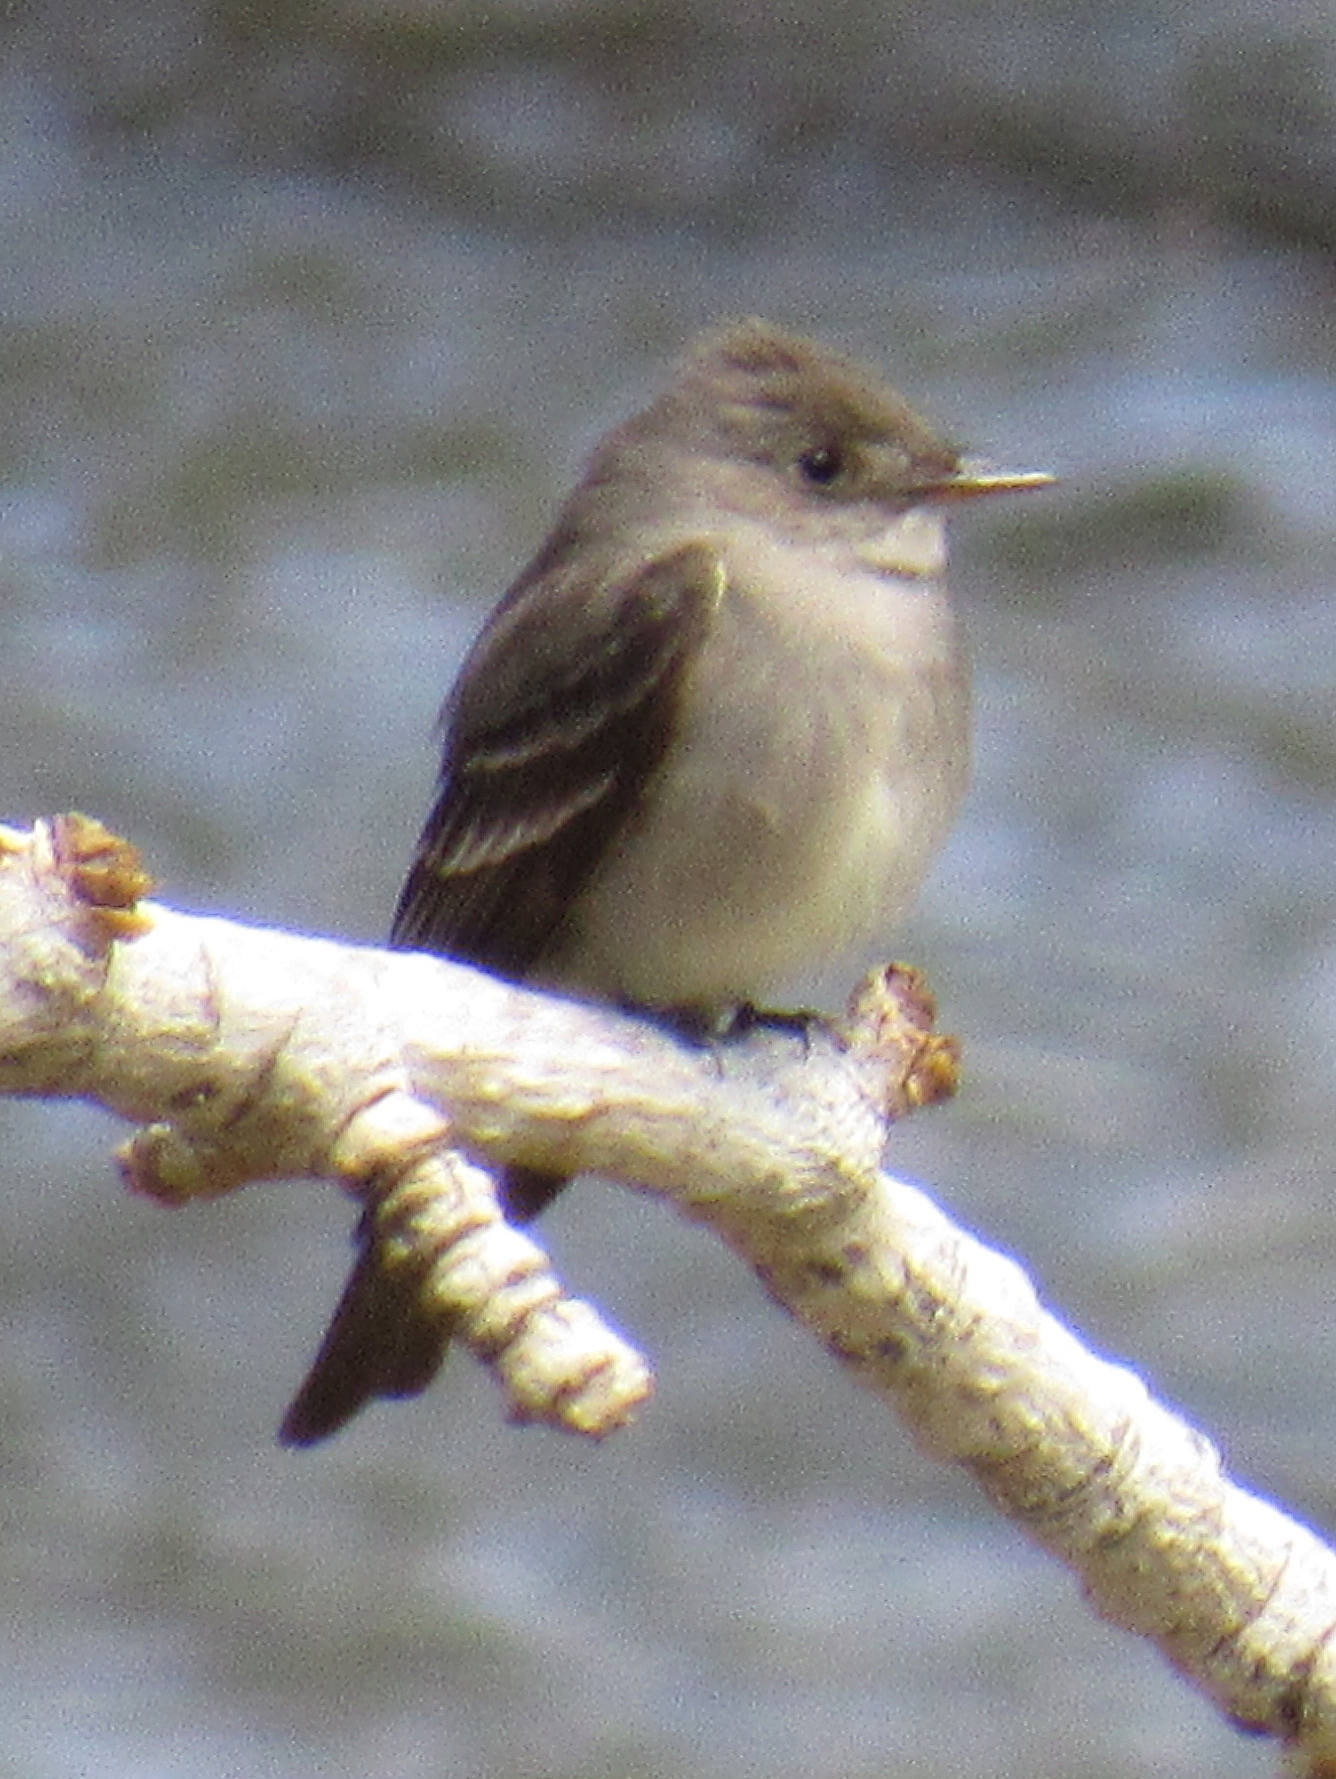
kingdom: Animalia
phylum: Chordata
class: Aves
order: Passeriformes
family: Tyrannidae
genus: Contopus
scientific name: Contopus sordidulus
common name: Western wood-pewee
